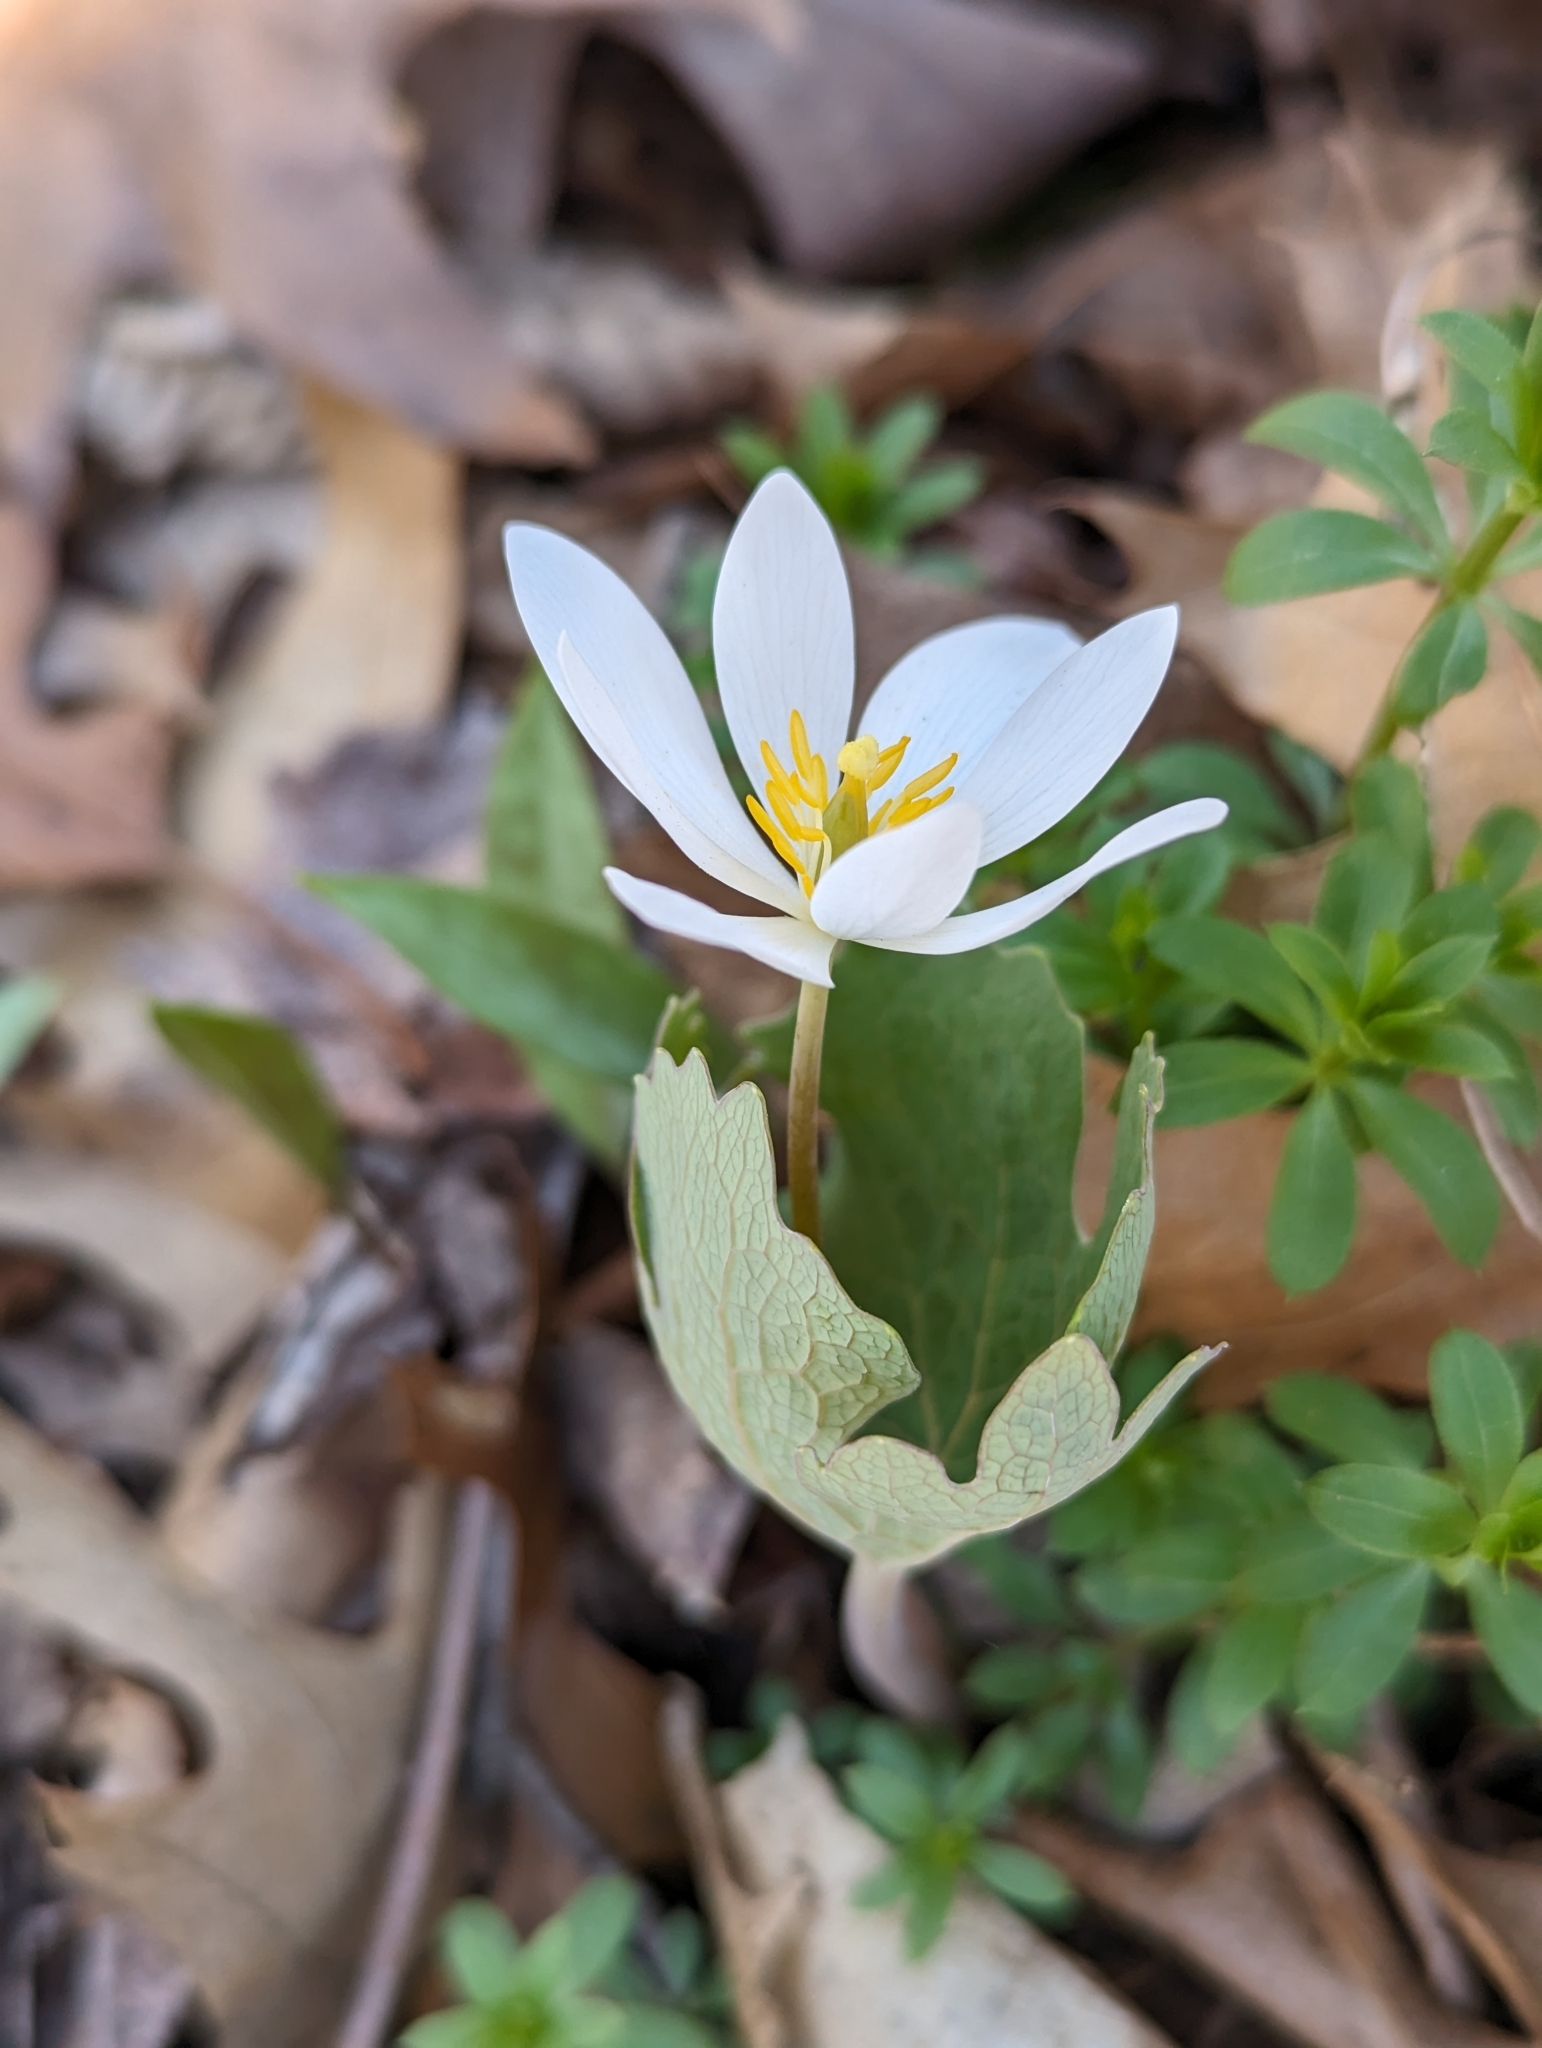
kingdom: Plantae
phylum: Tracheophyta
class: Magnoliopsida
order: Ranunculales
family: Papaveraceae
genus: Sanguinaria
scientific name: Sanguinaria canadensis
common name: Bloodroot
